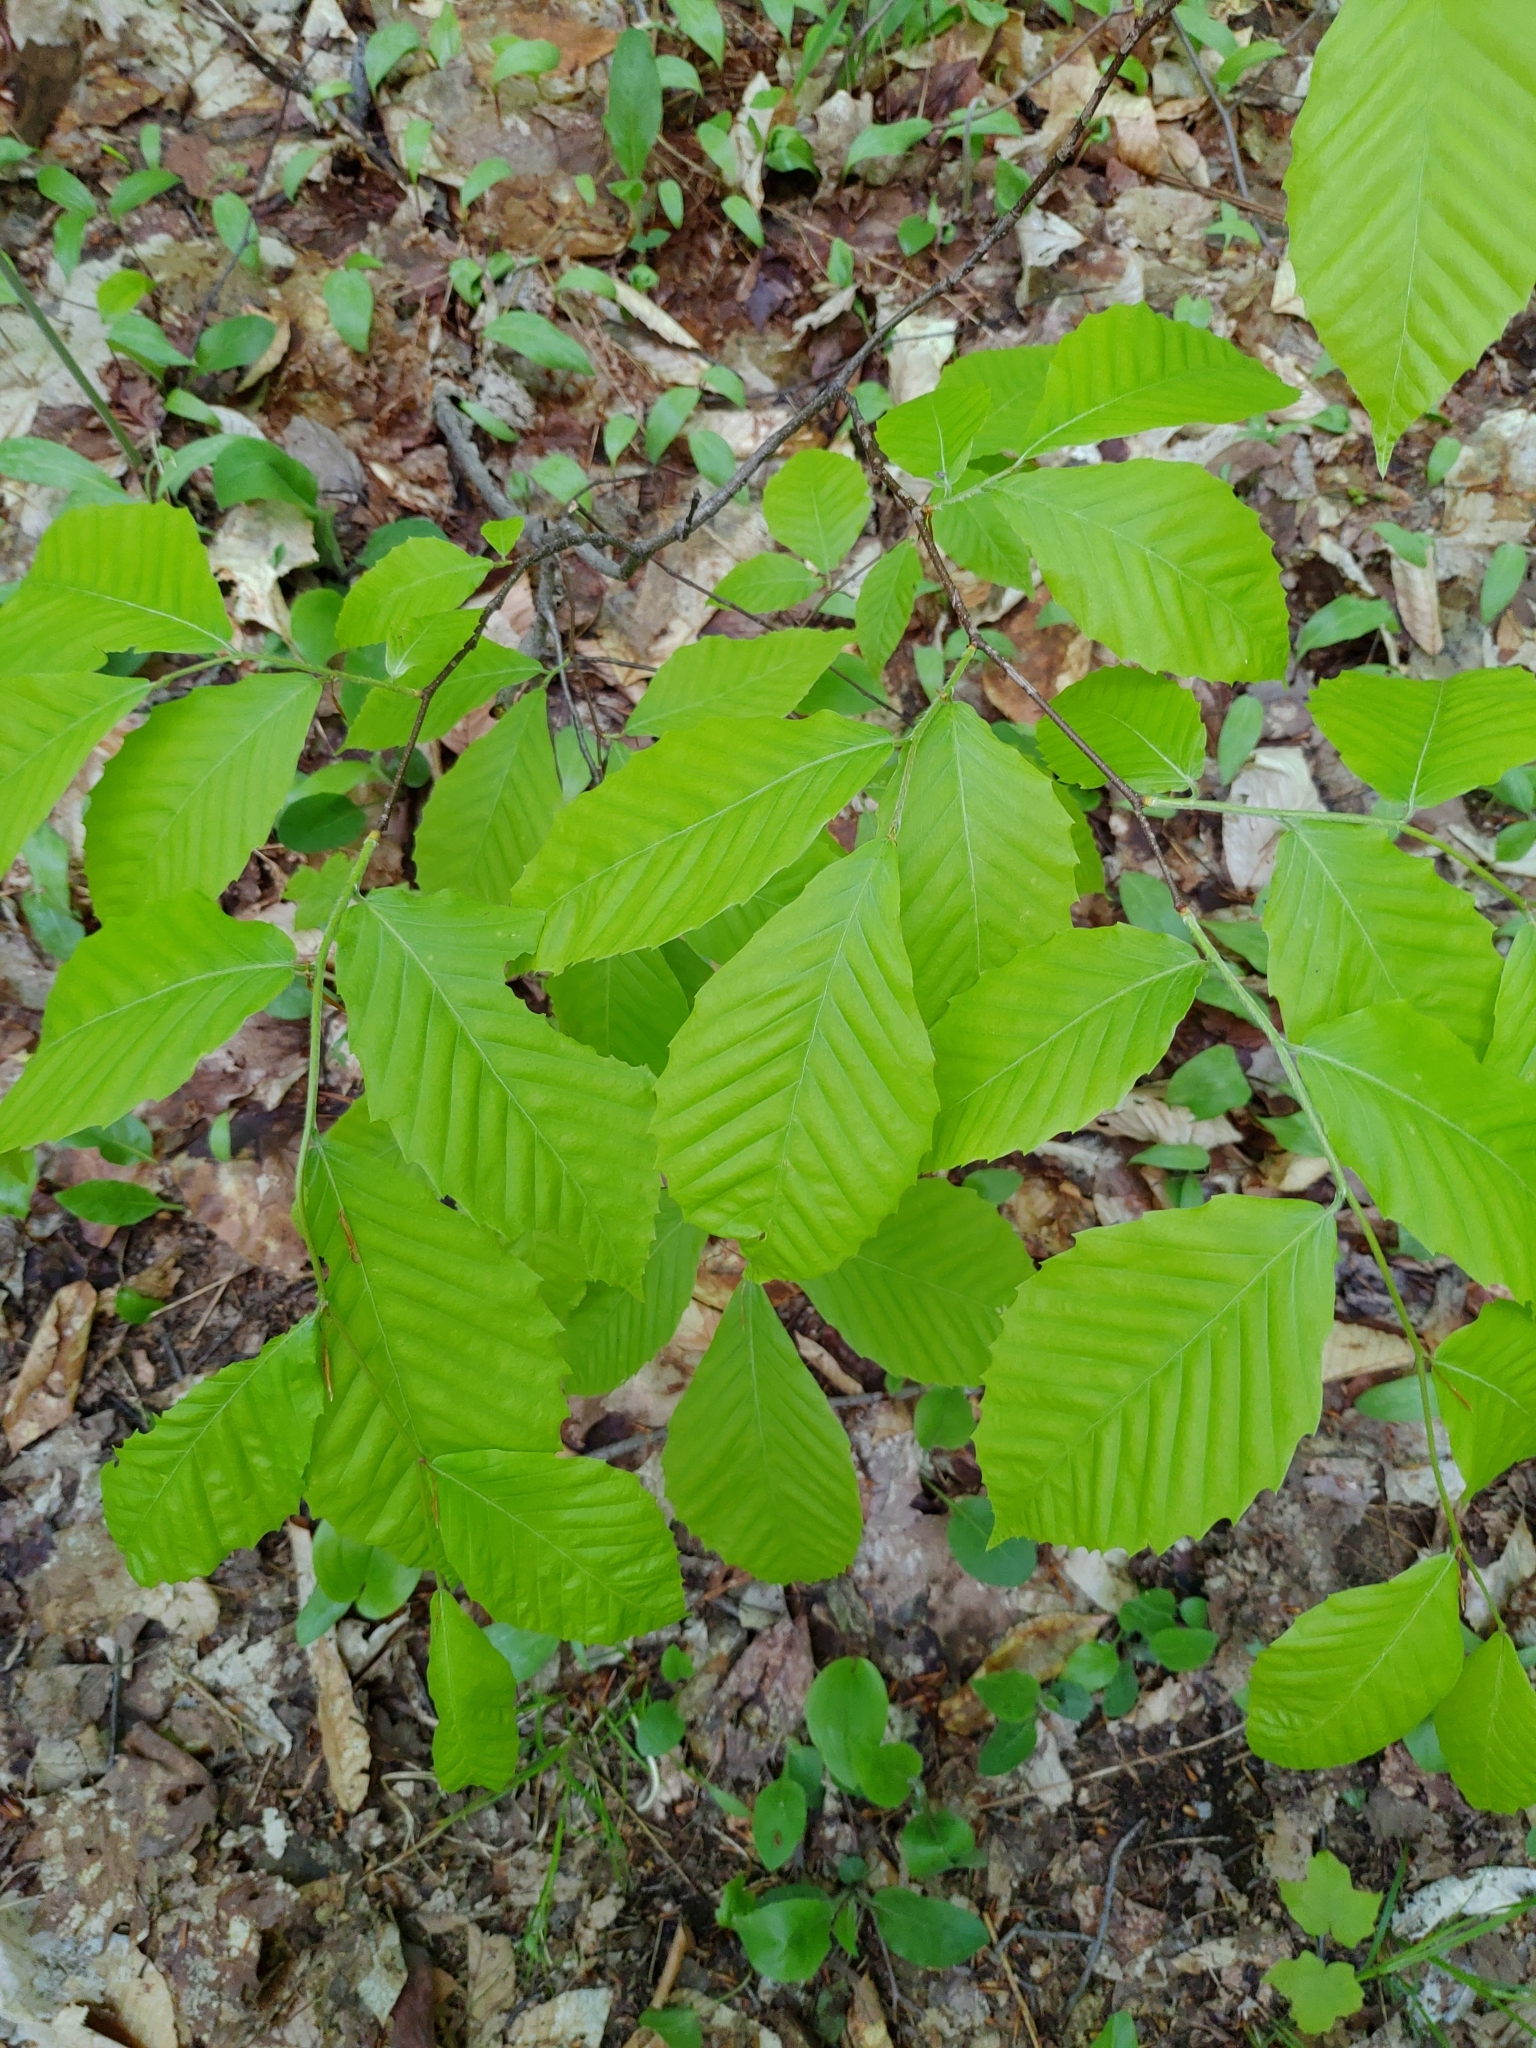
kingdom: Plantae
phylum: Tracheophyta
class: Magnoliopsida
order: Fagales
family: Fagaceae
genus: Fagus
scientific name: Fagus grandifolia
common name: American beech
